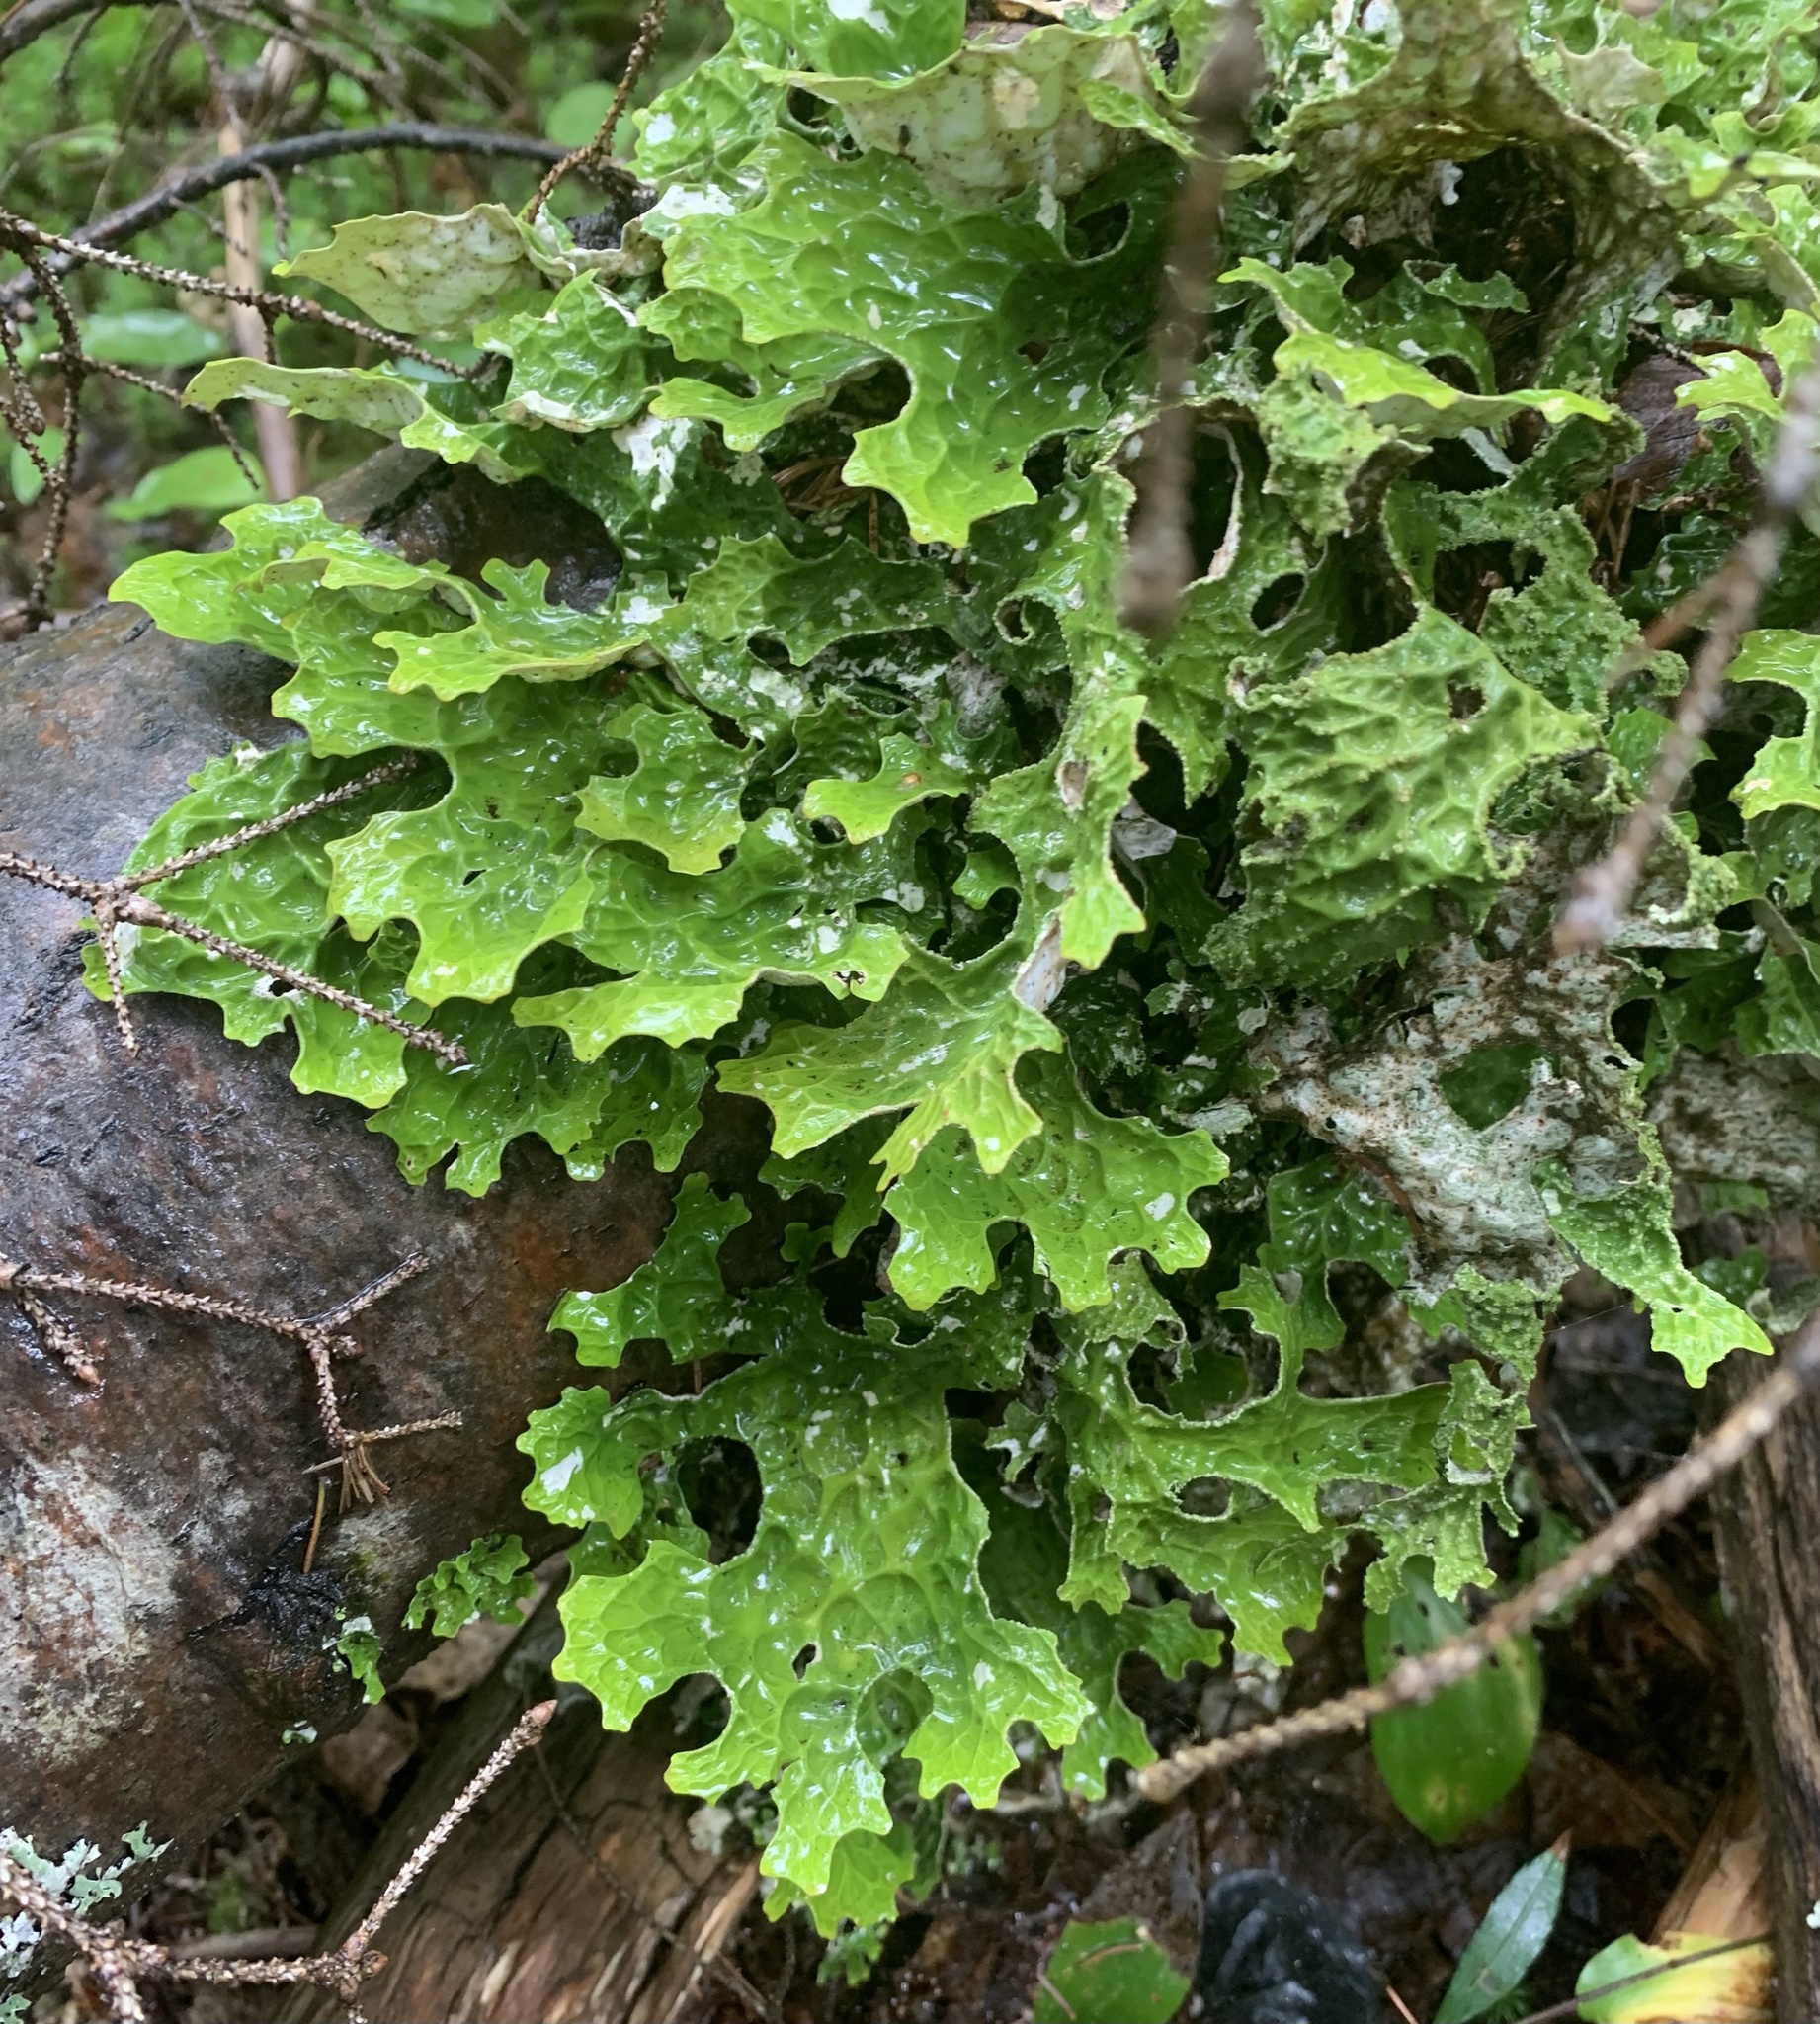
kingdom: Fungi
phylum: Ascomycota
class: Lecanoromycetes
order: Peltigerales
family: Lobariaceae
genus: Lobaria
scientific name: Lobaria pulmonaria
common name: Lungwort
